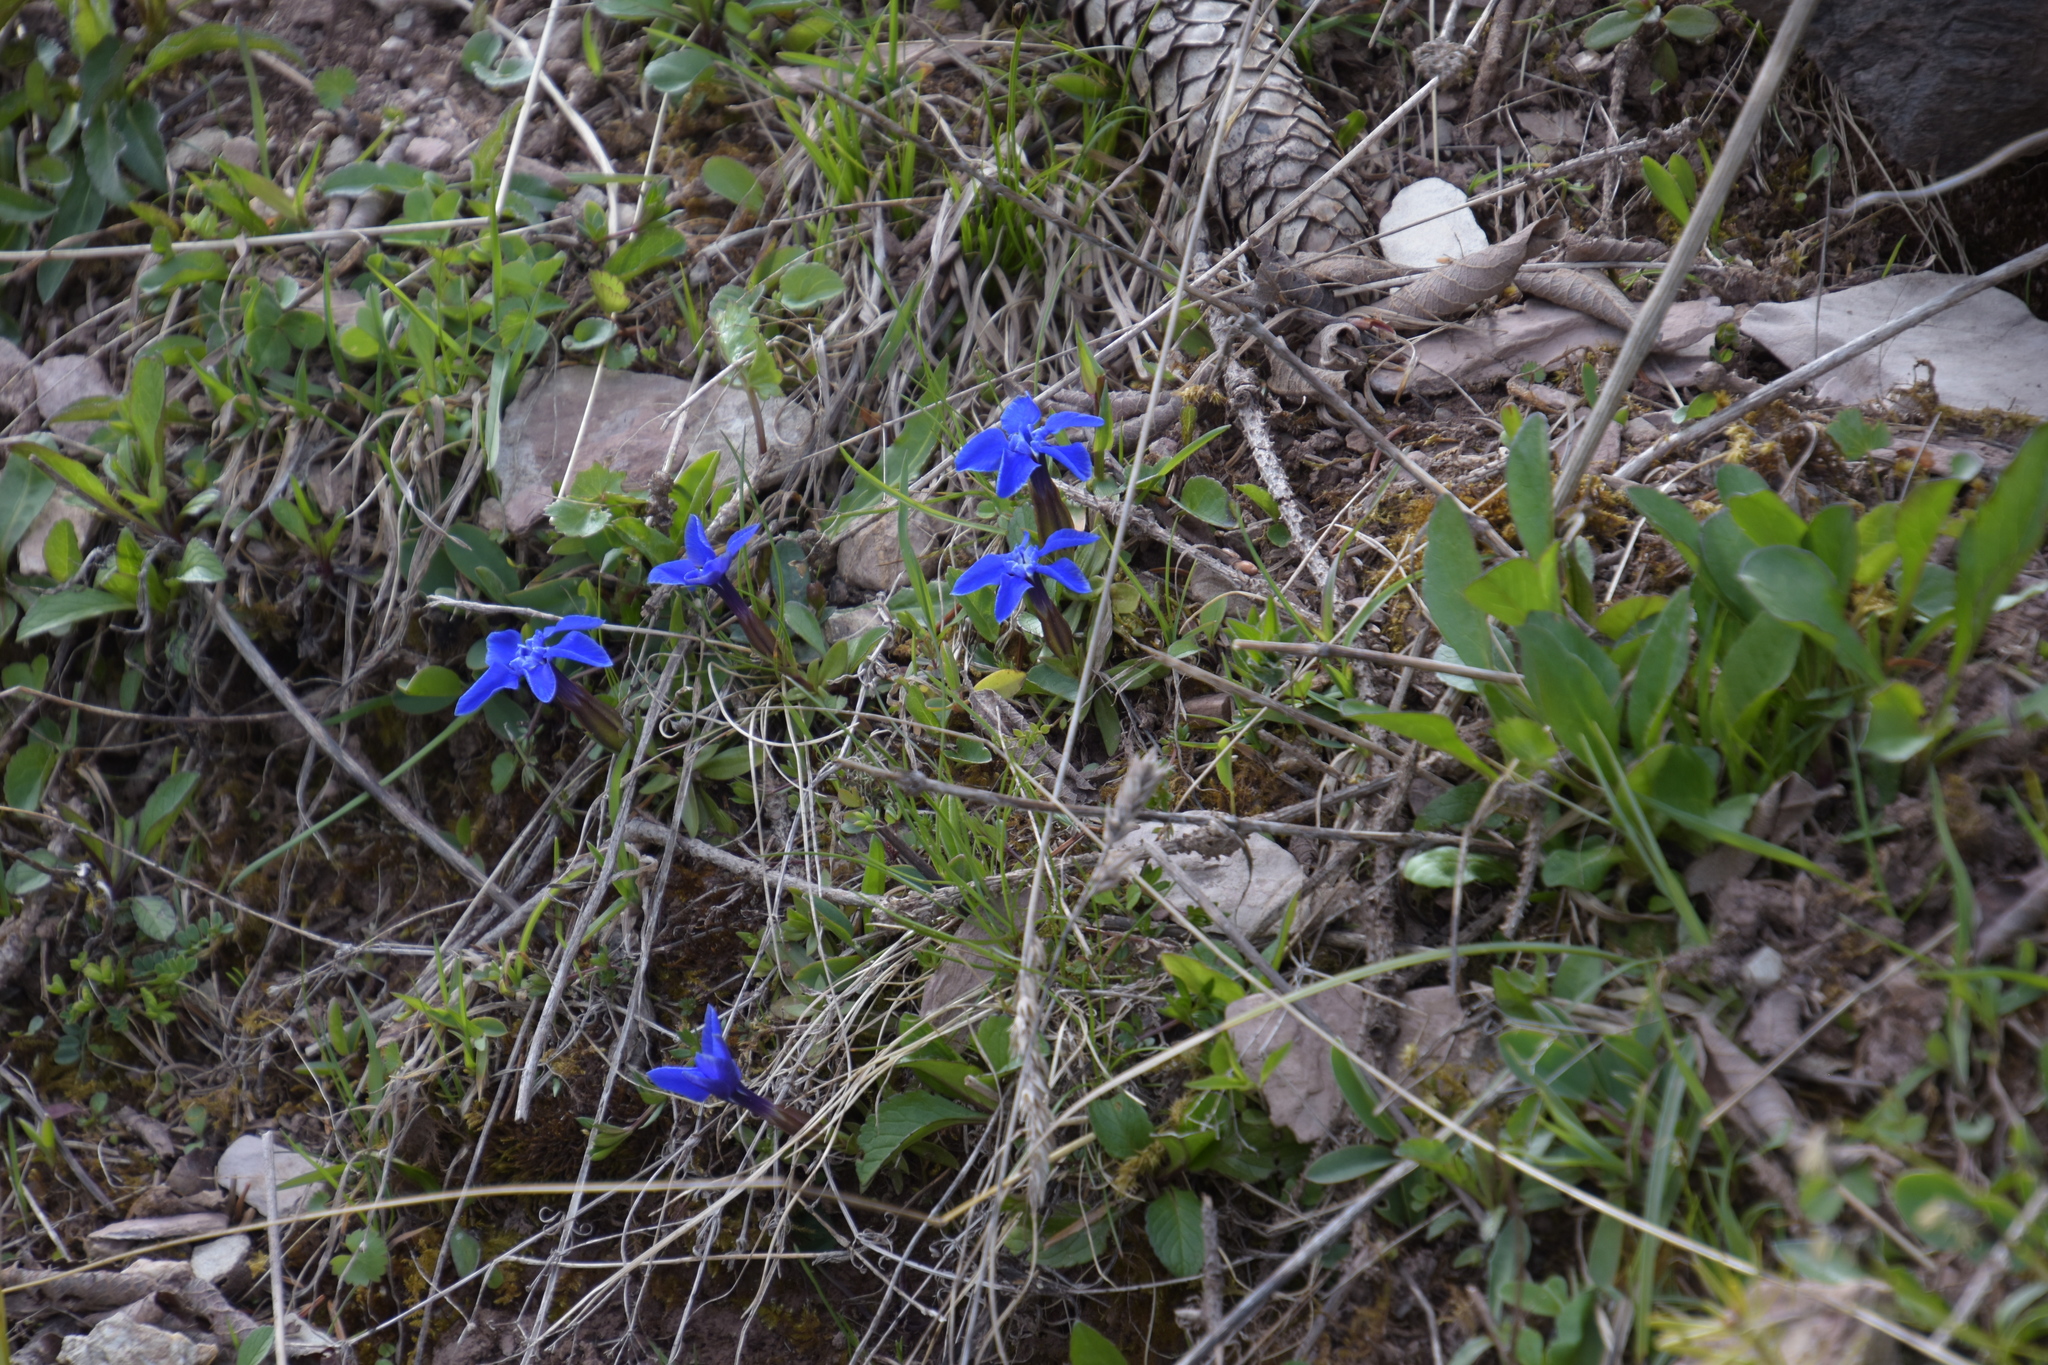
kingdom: Plantae
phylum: Tracheophyta
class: Magnoliopsida
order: Gentianales
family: Gentianaceae
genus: Gentiana
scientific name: Gentiana verna
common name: Spring gentian
